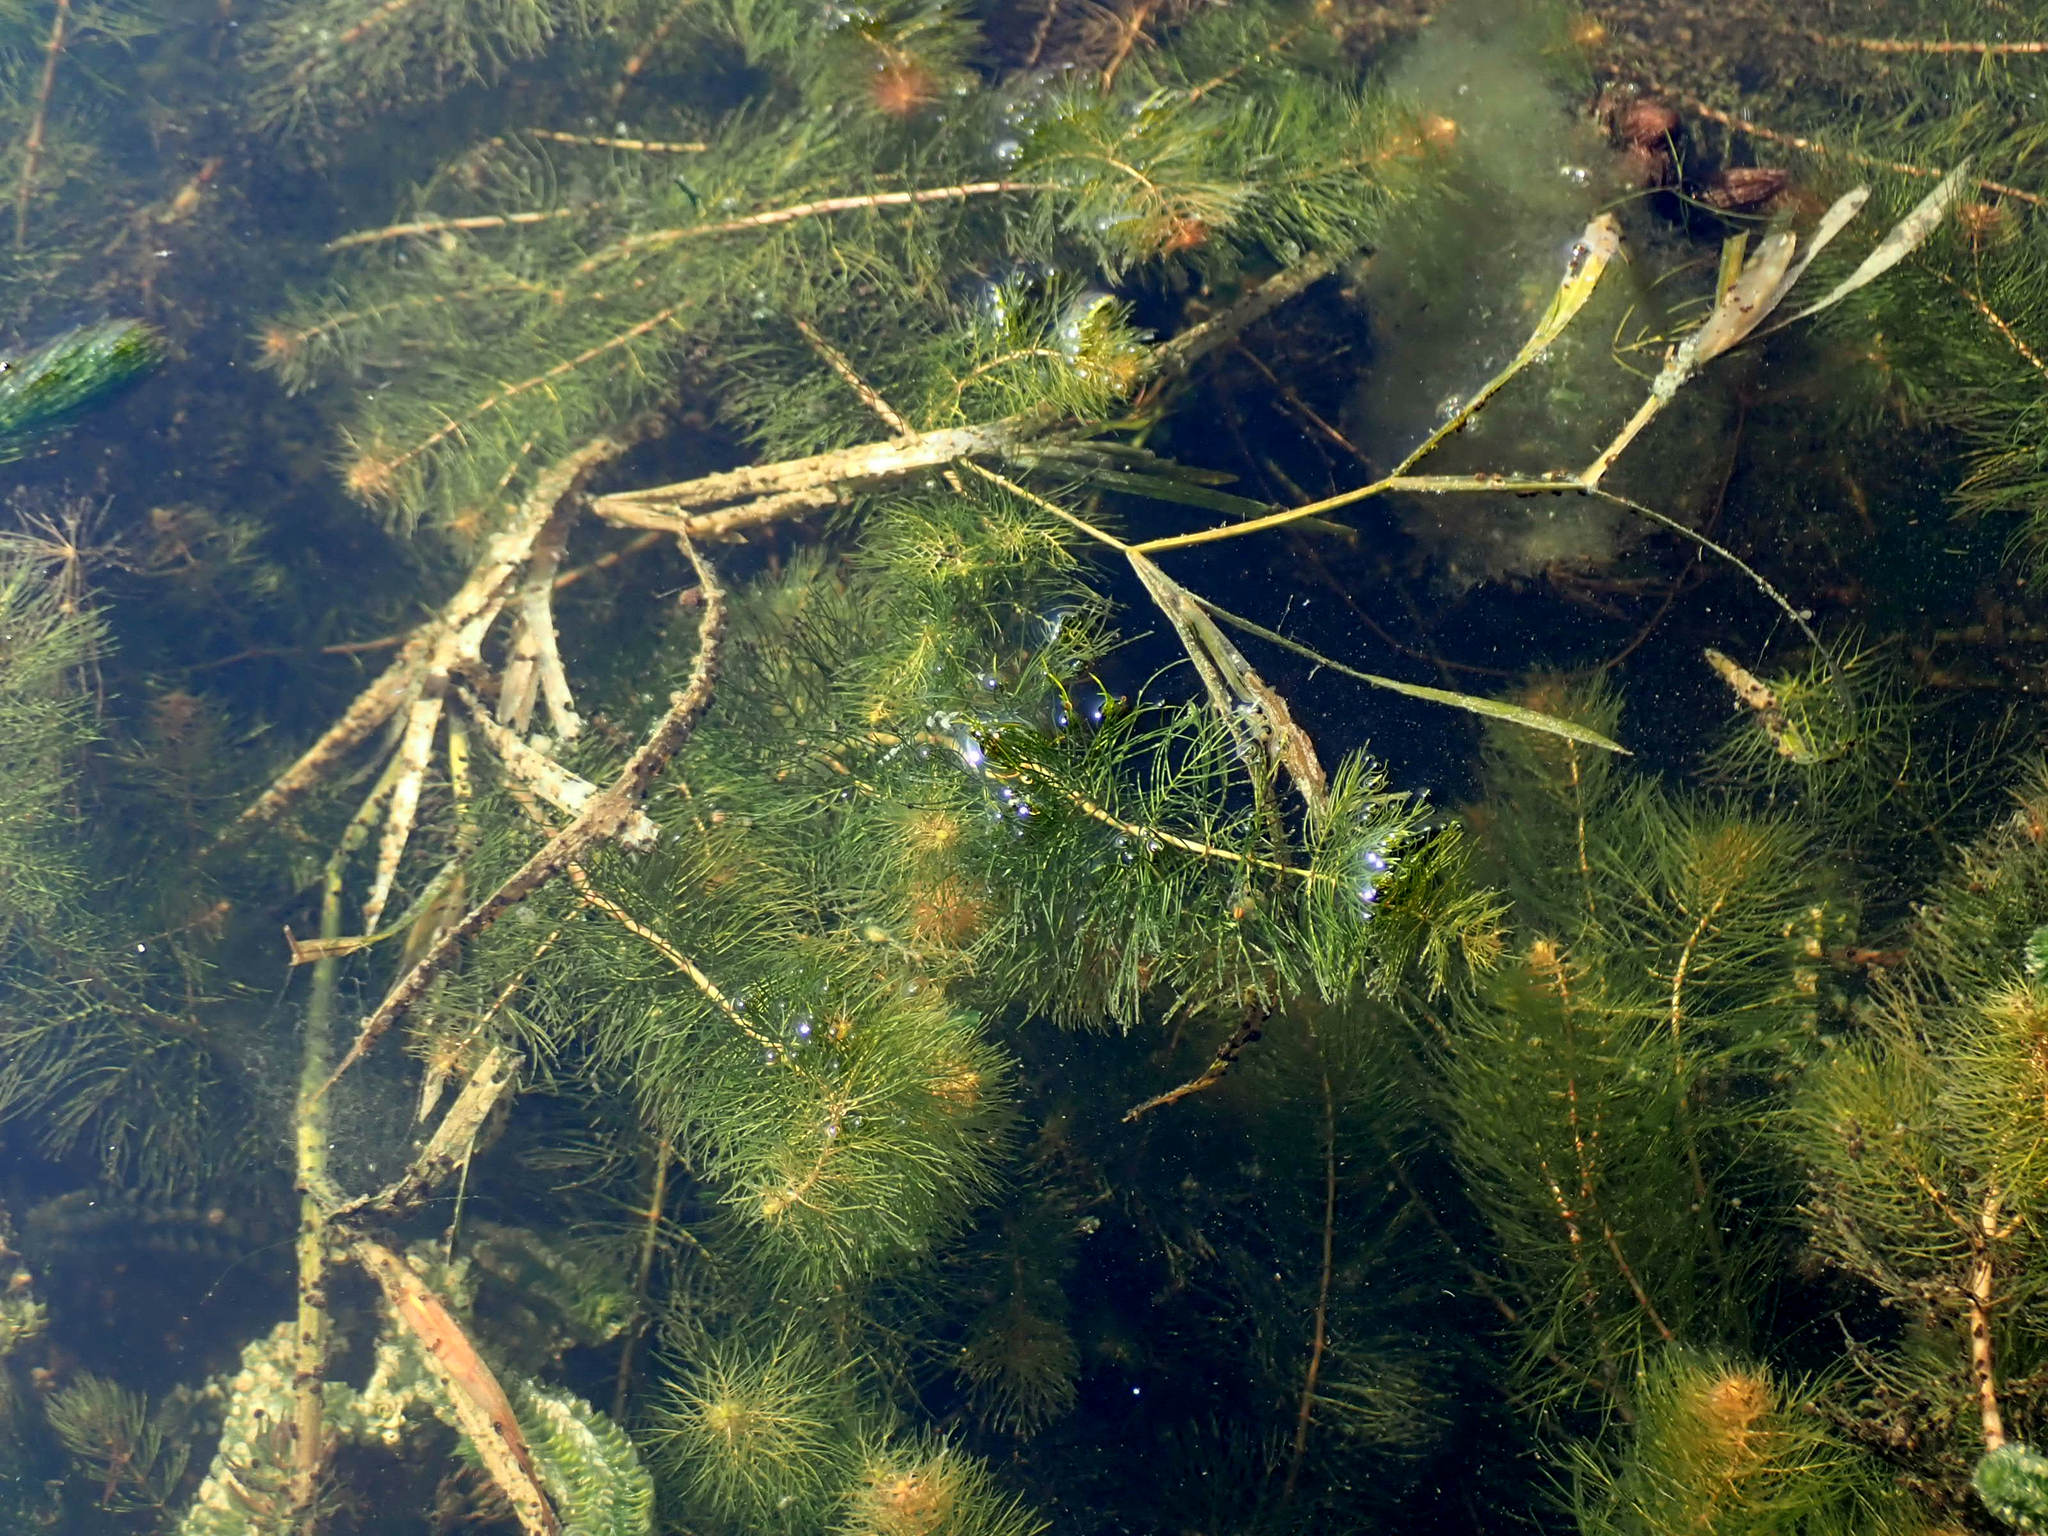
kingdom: Plantae
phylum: Tracheophyta
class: Liliopsida
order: Alismatales
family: Potamogetonaceae
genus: Potamogeton
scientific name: Potamogeton zosteriformis
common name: Eelgrass pondweed
